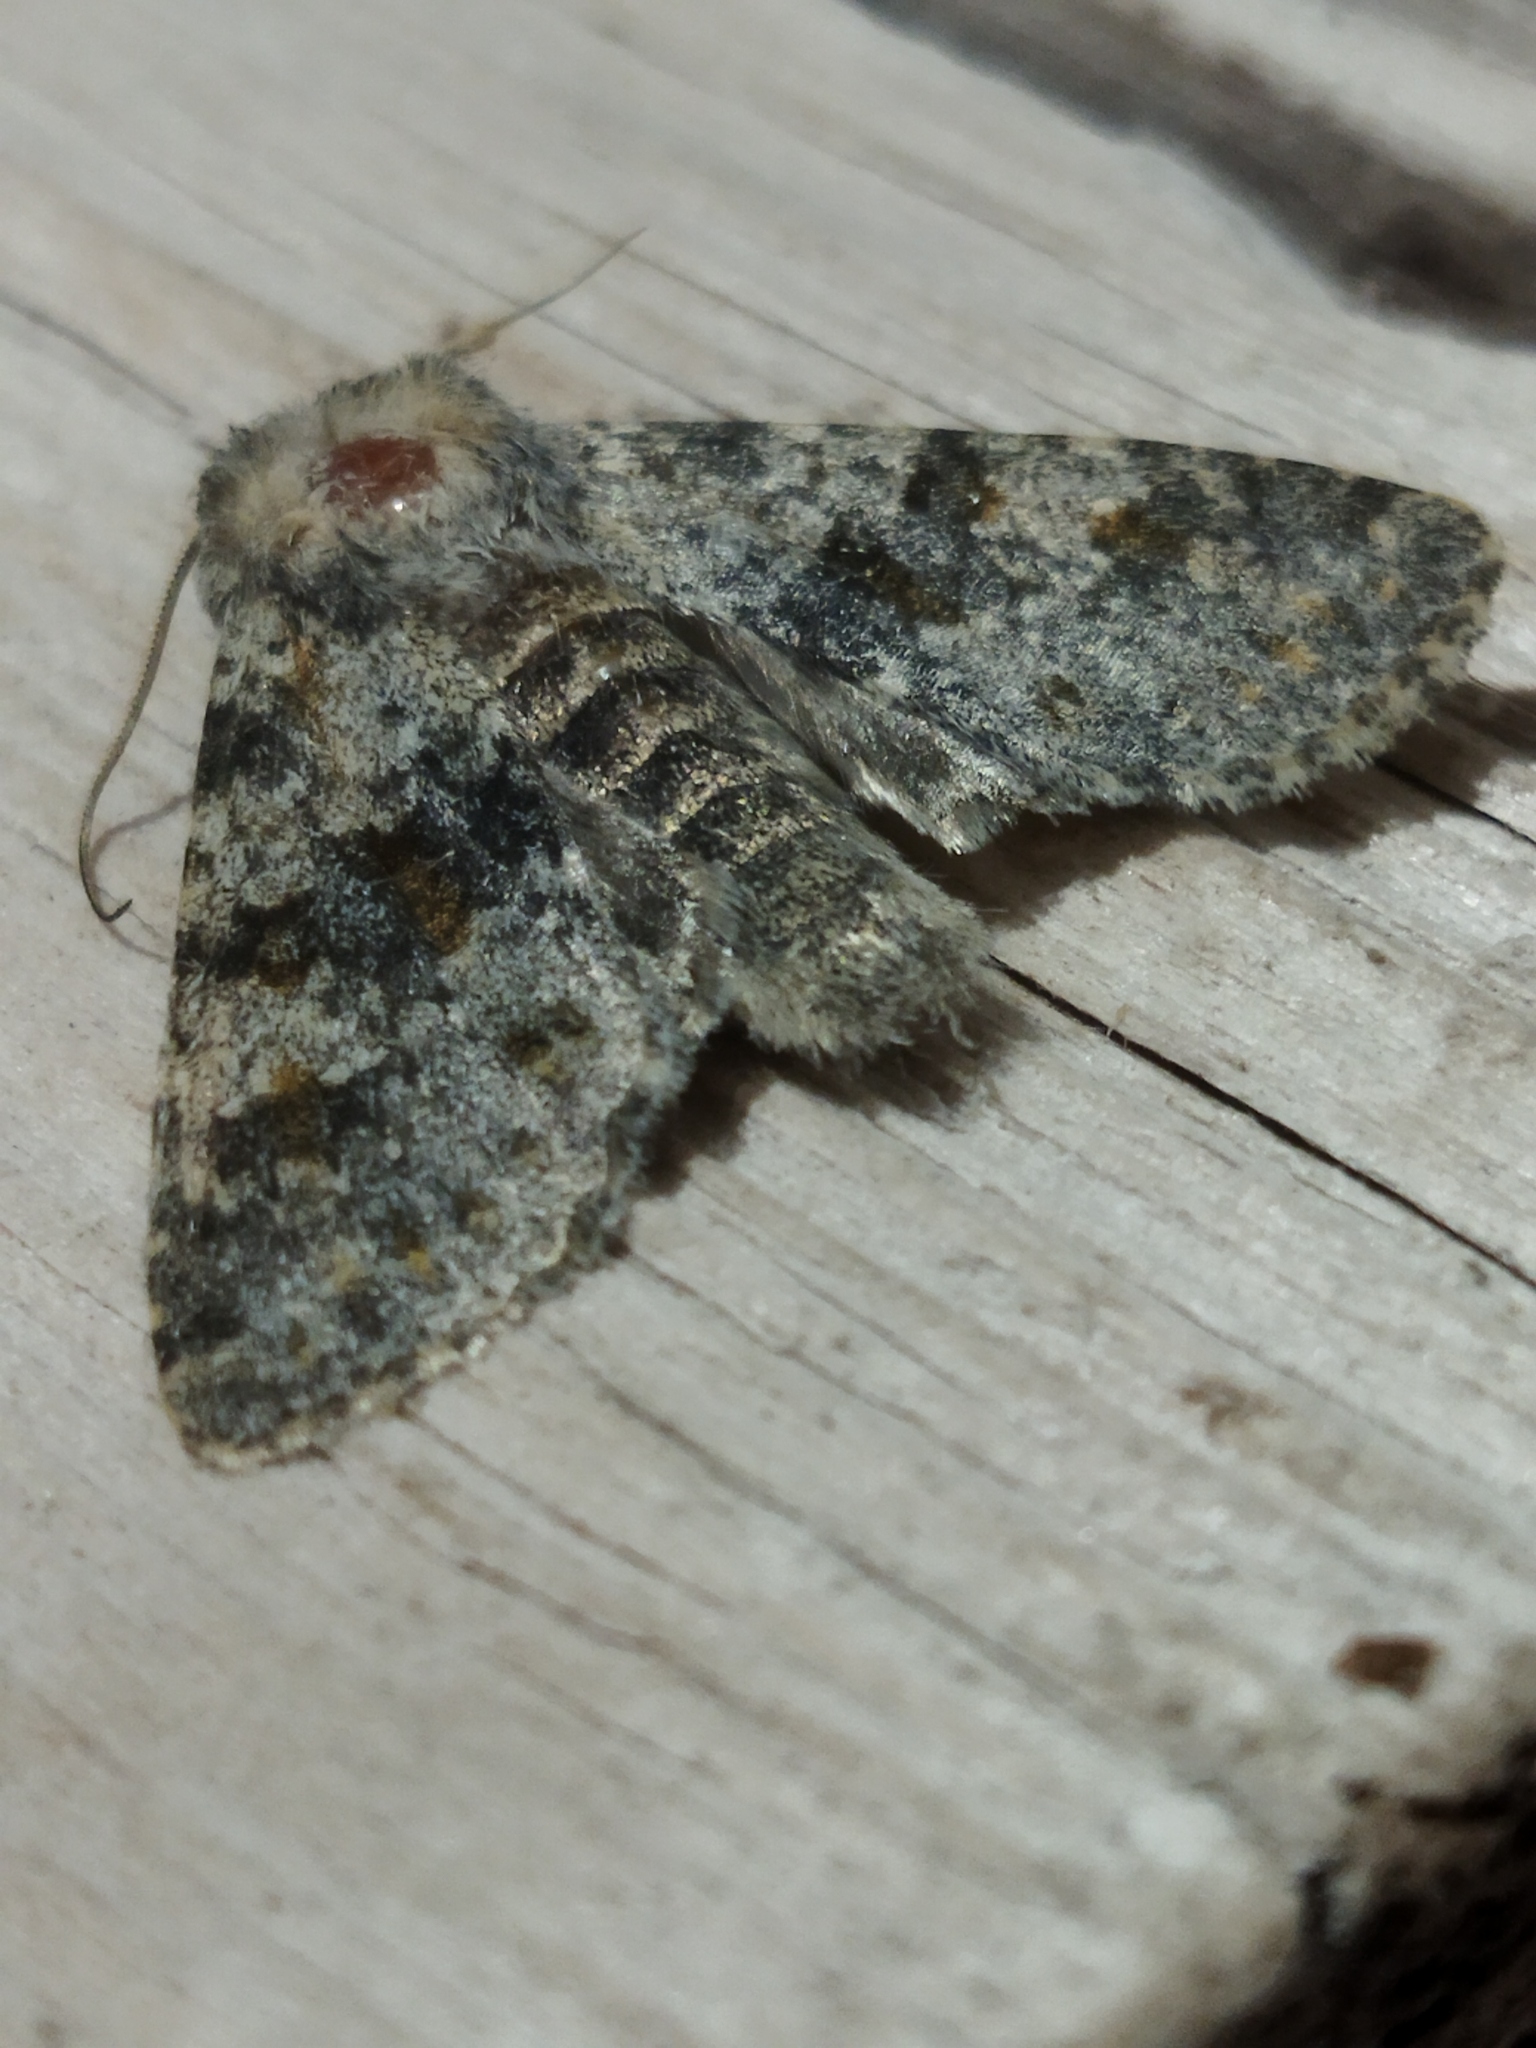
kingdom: Animalia
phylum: Arthropoda
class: Insecta
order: Lepidoptera
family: Noctuidae
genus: Polymixis
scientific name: Polymixis rufocincta
